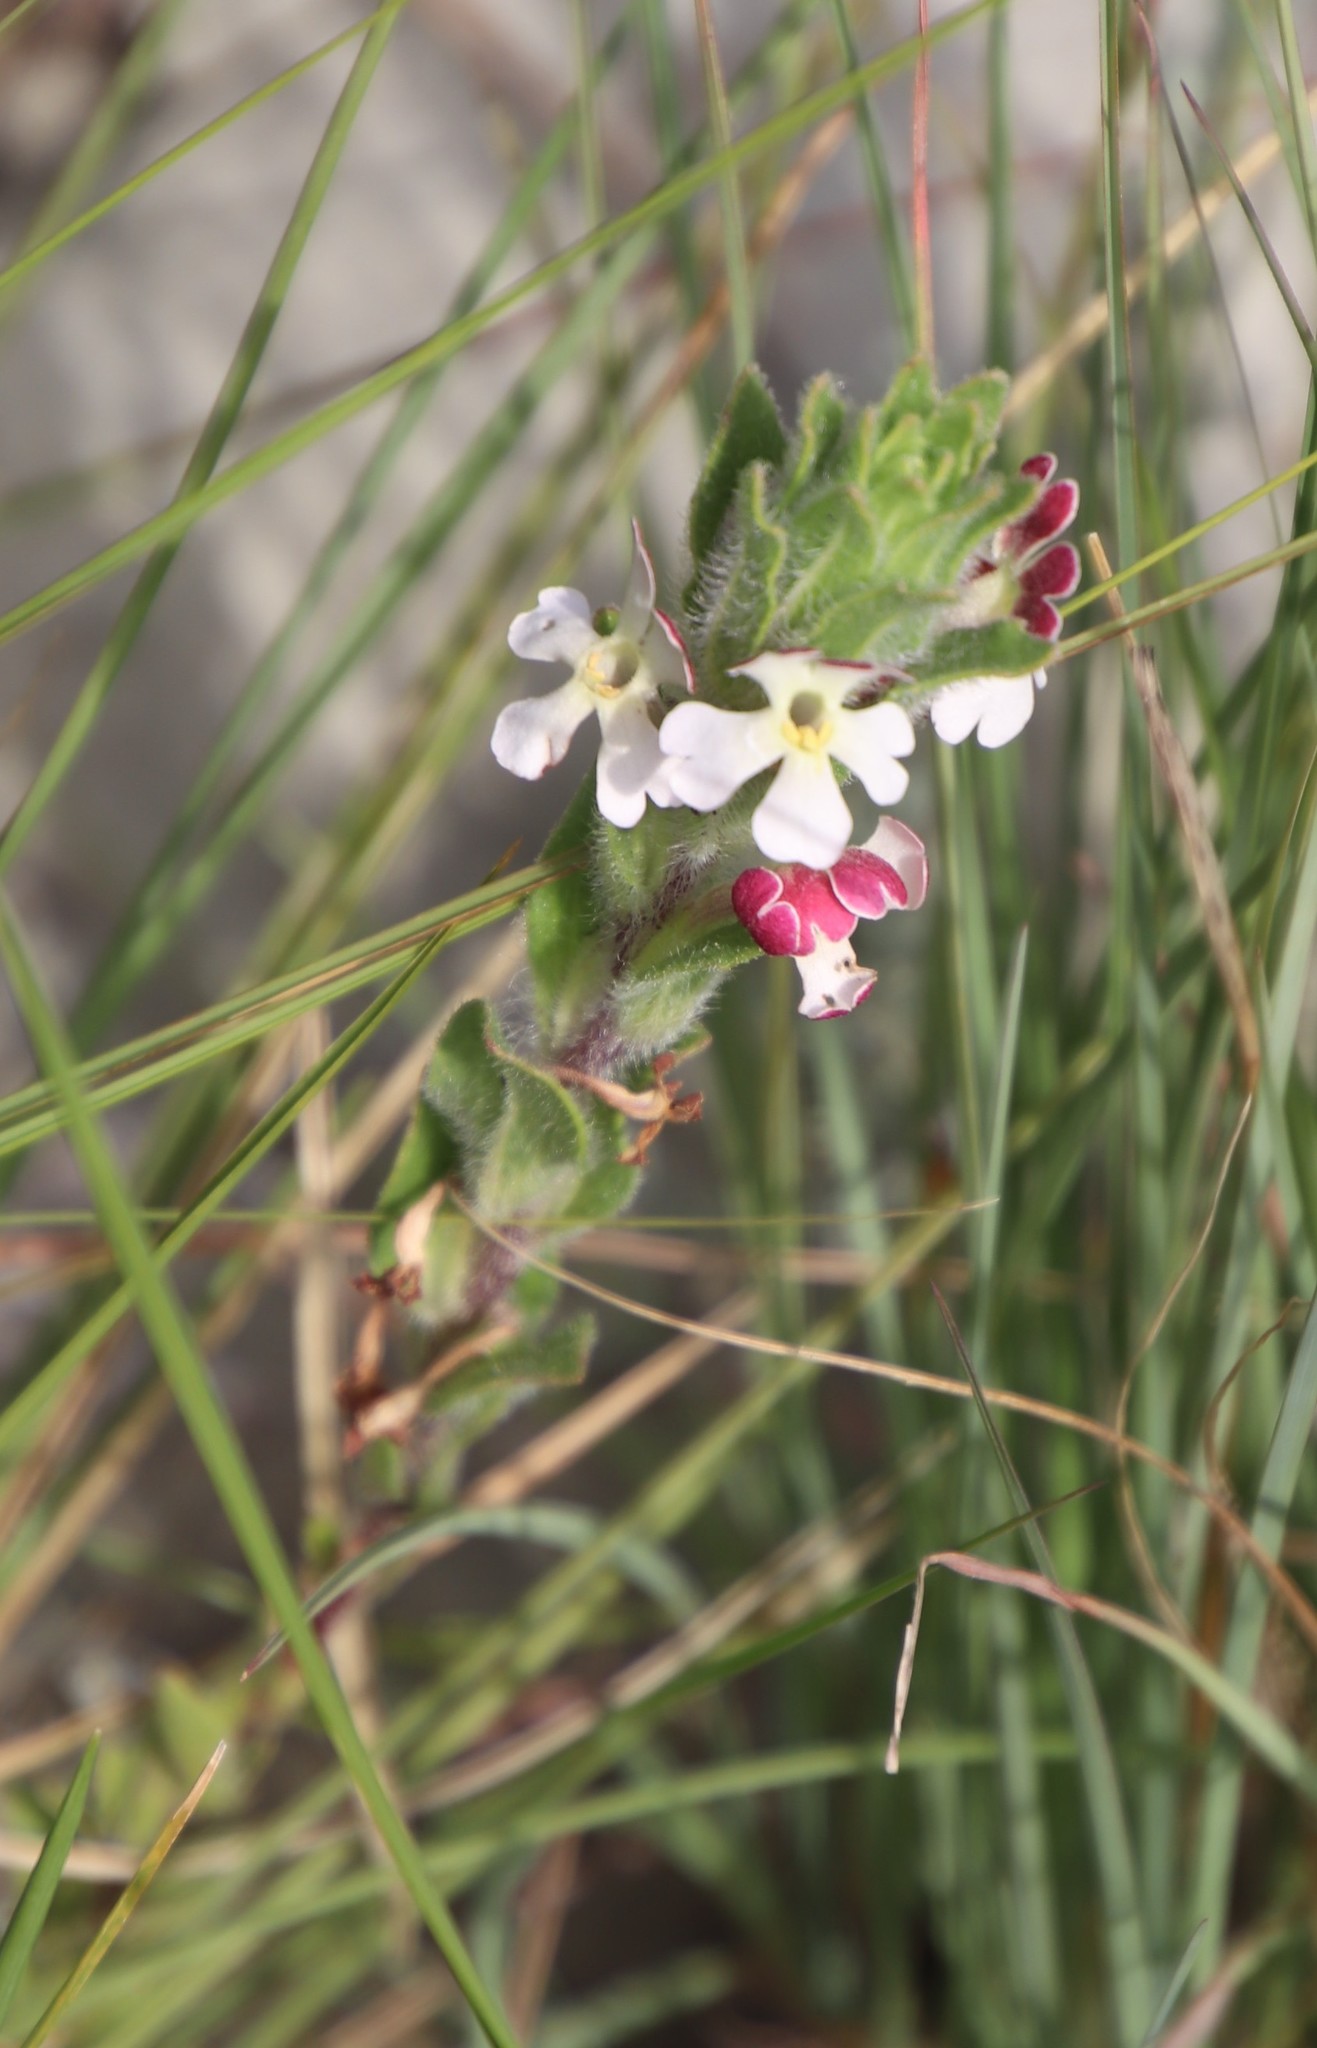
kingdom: Plantae
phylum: Tracheophyta
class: Magnoliopsida
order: Lamiales
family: Scrophulariaceae
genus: Zaluzianskya
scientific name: Zaluzianskya microsiphon
